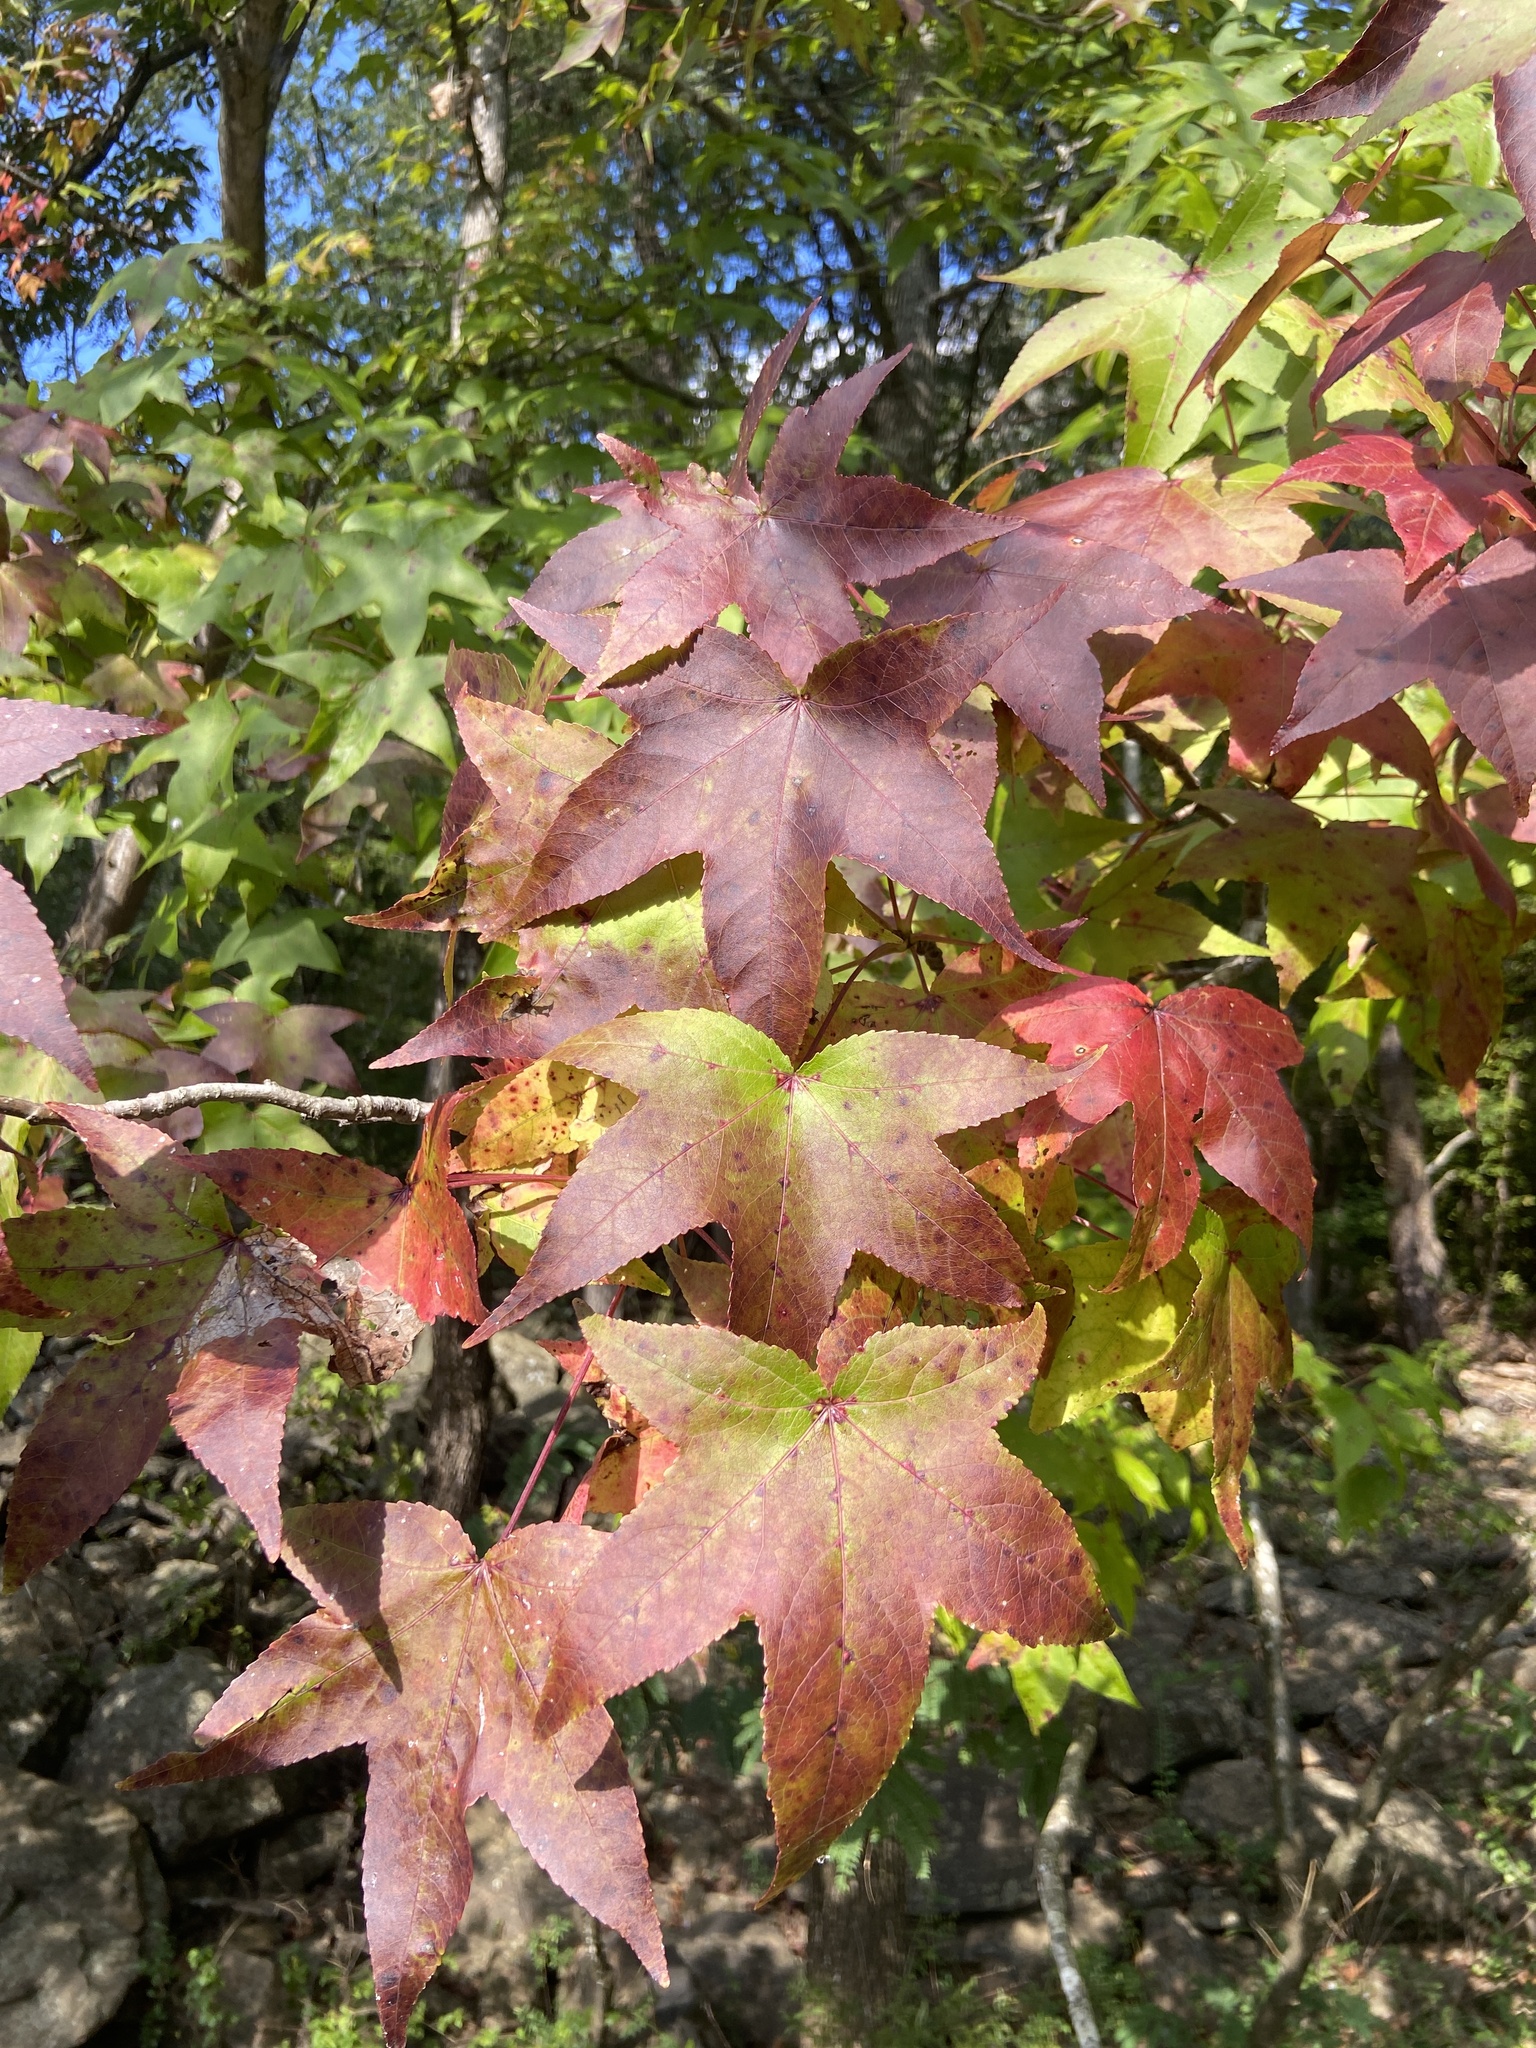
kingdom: Plantae
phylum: Tracheophyta
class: Magnoliopsida
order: Saxifragales
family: Altingiaceae
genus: Liquidambar
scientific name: Liquidambar styraciflua
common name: Sweet gum
